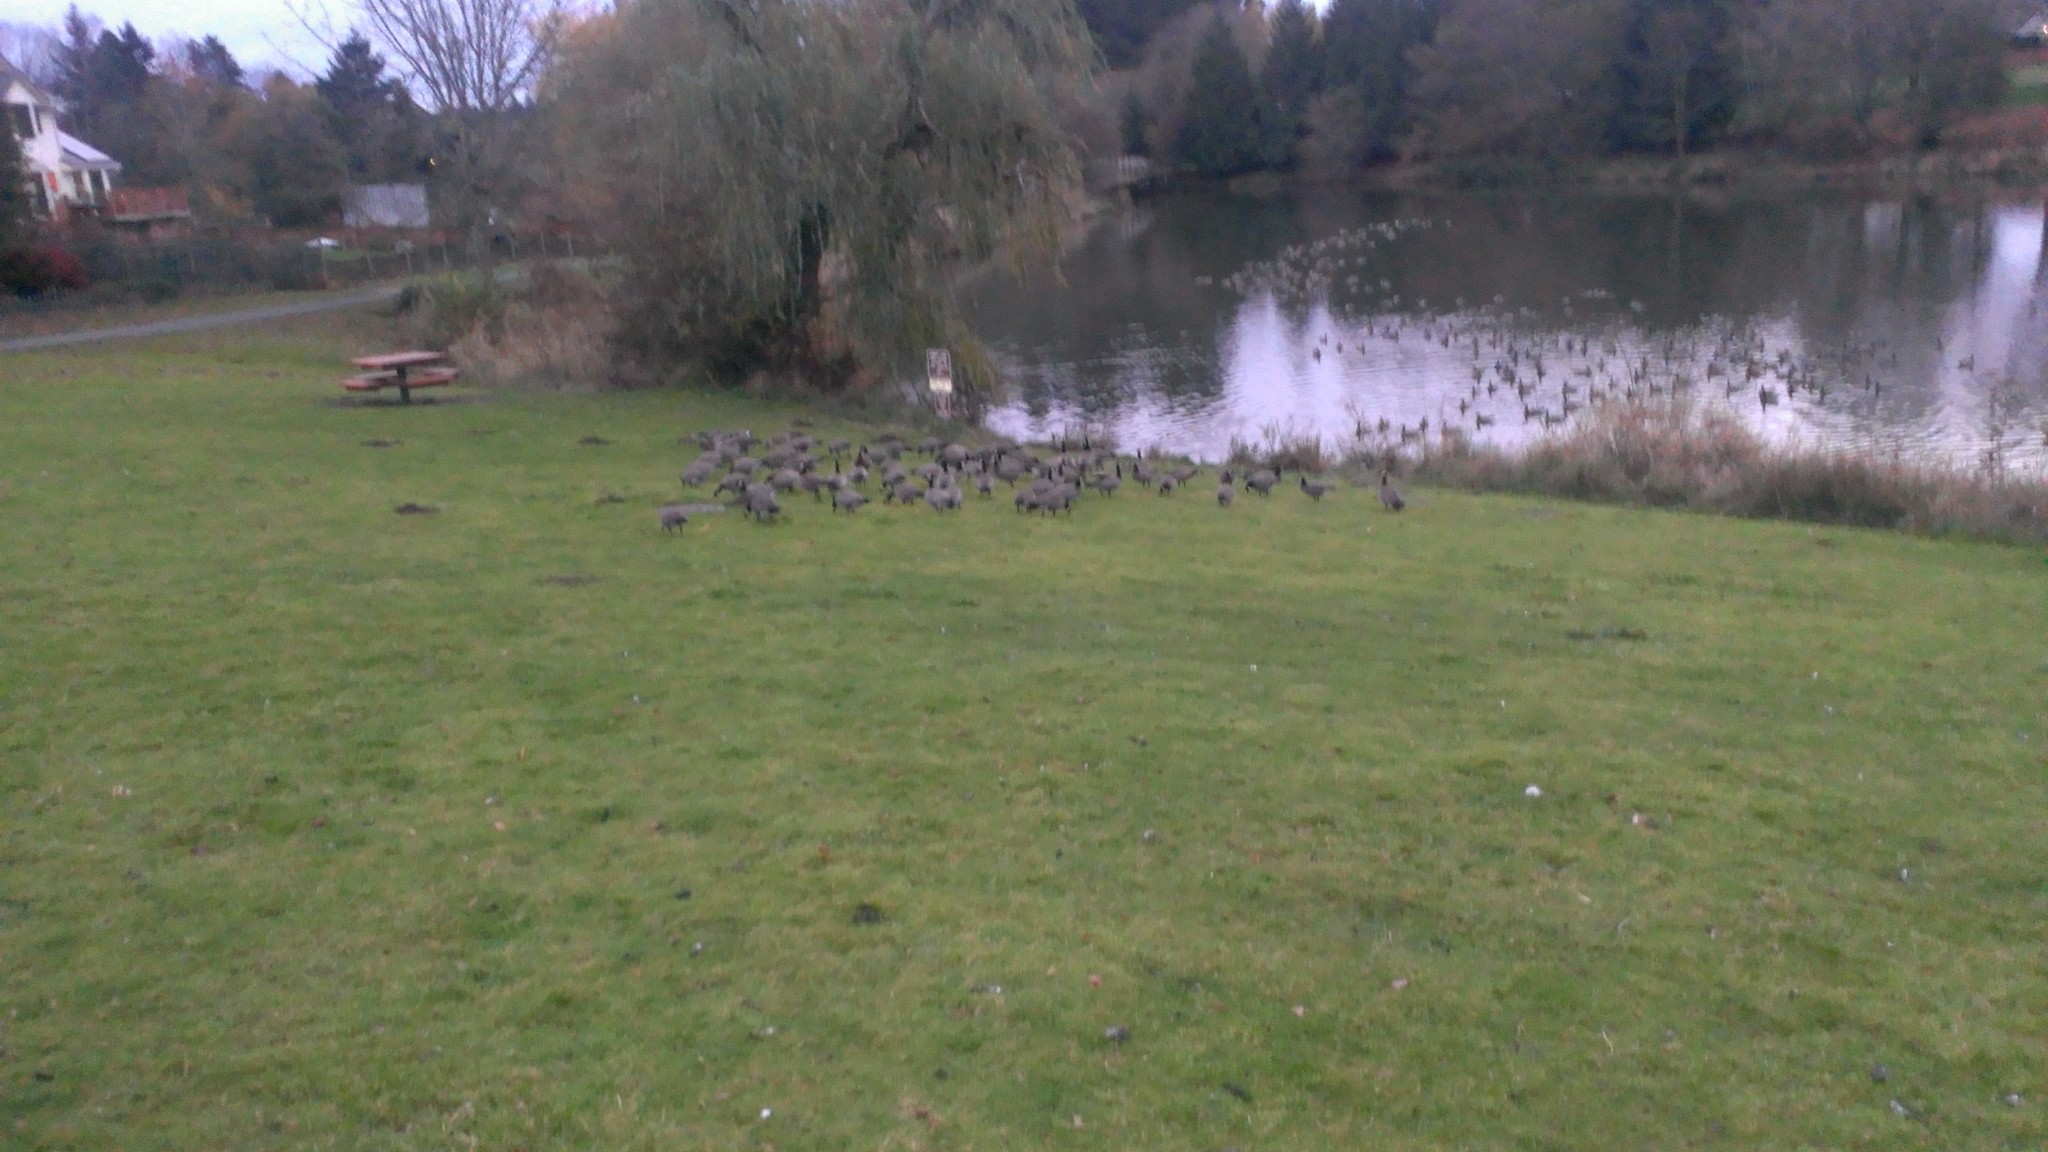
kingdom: Animalia
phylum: Chordata
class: Aves
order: Anseriformes
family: Anatidae
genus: Branta
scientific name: Branta hutchinsii
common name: Cackling goose
